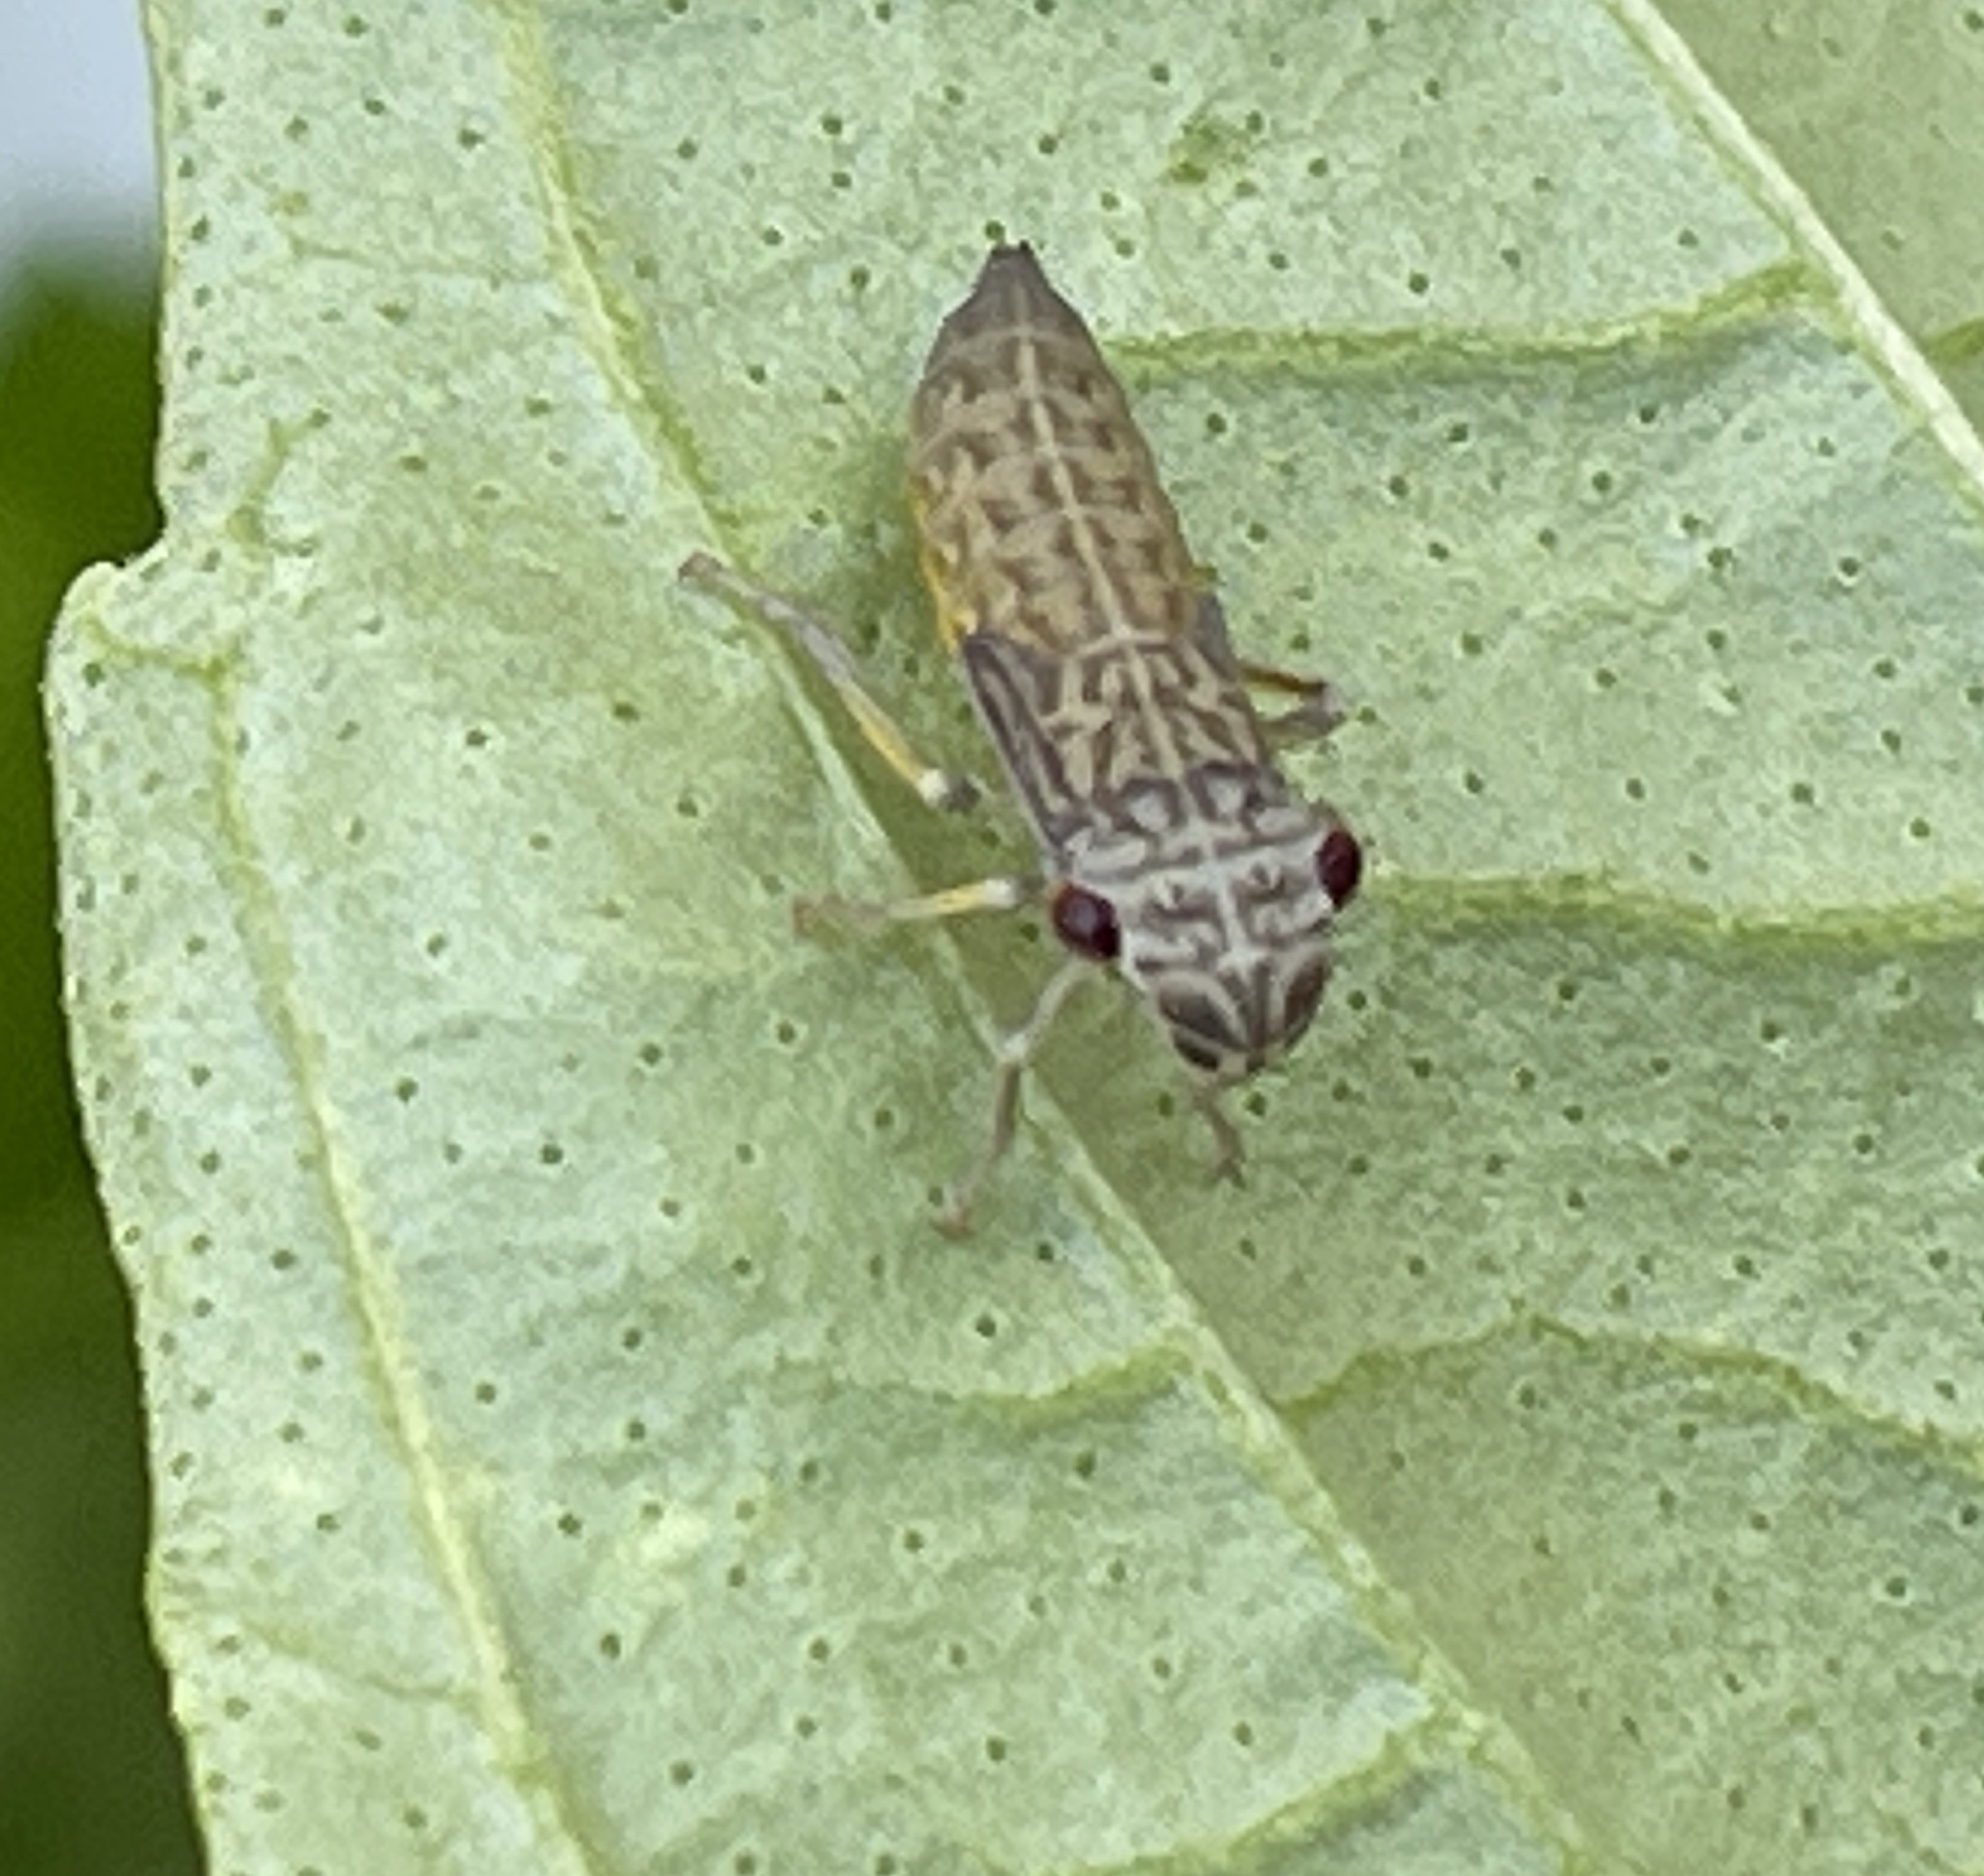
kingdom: Animalia
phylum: Arthropoda
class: Insecta
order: Hemiptera
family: Cicadellidae
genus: Oncometopia
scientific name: Oncometopia orbona
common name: Broad-headed sharpshooter
